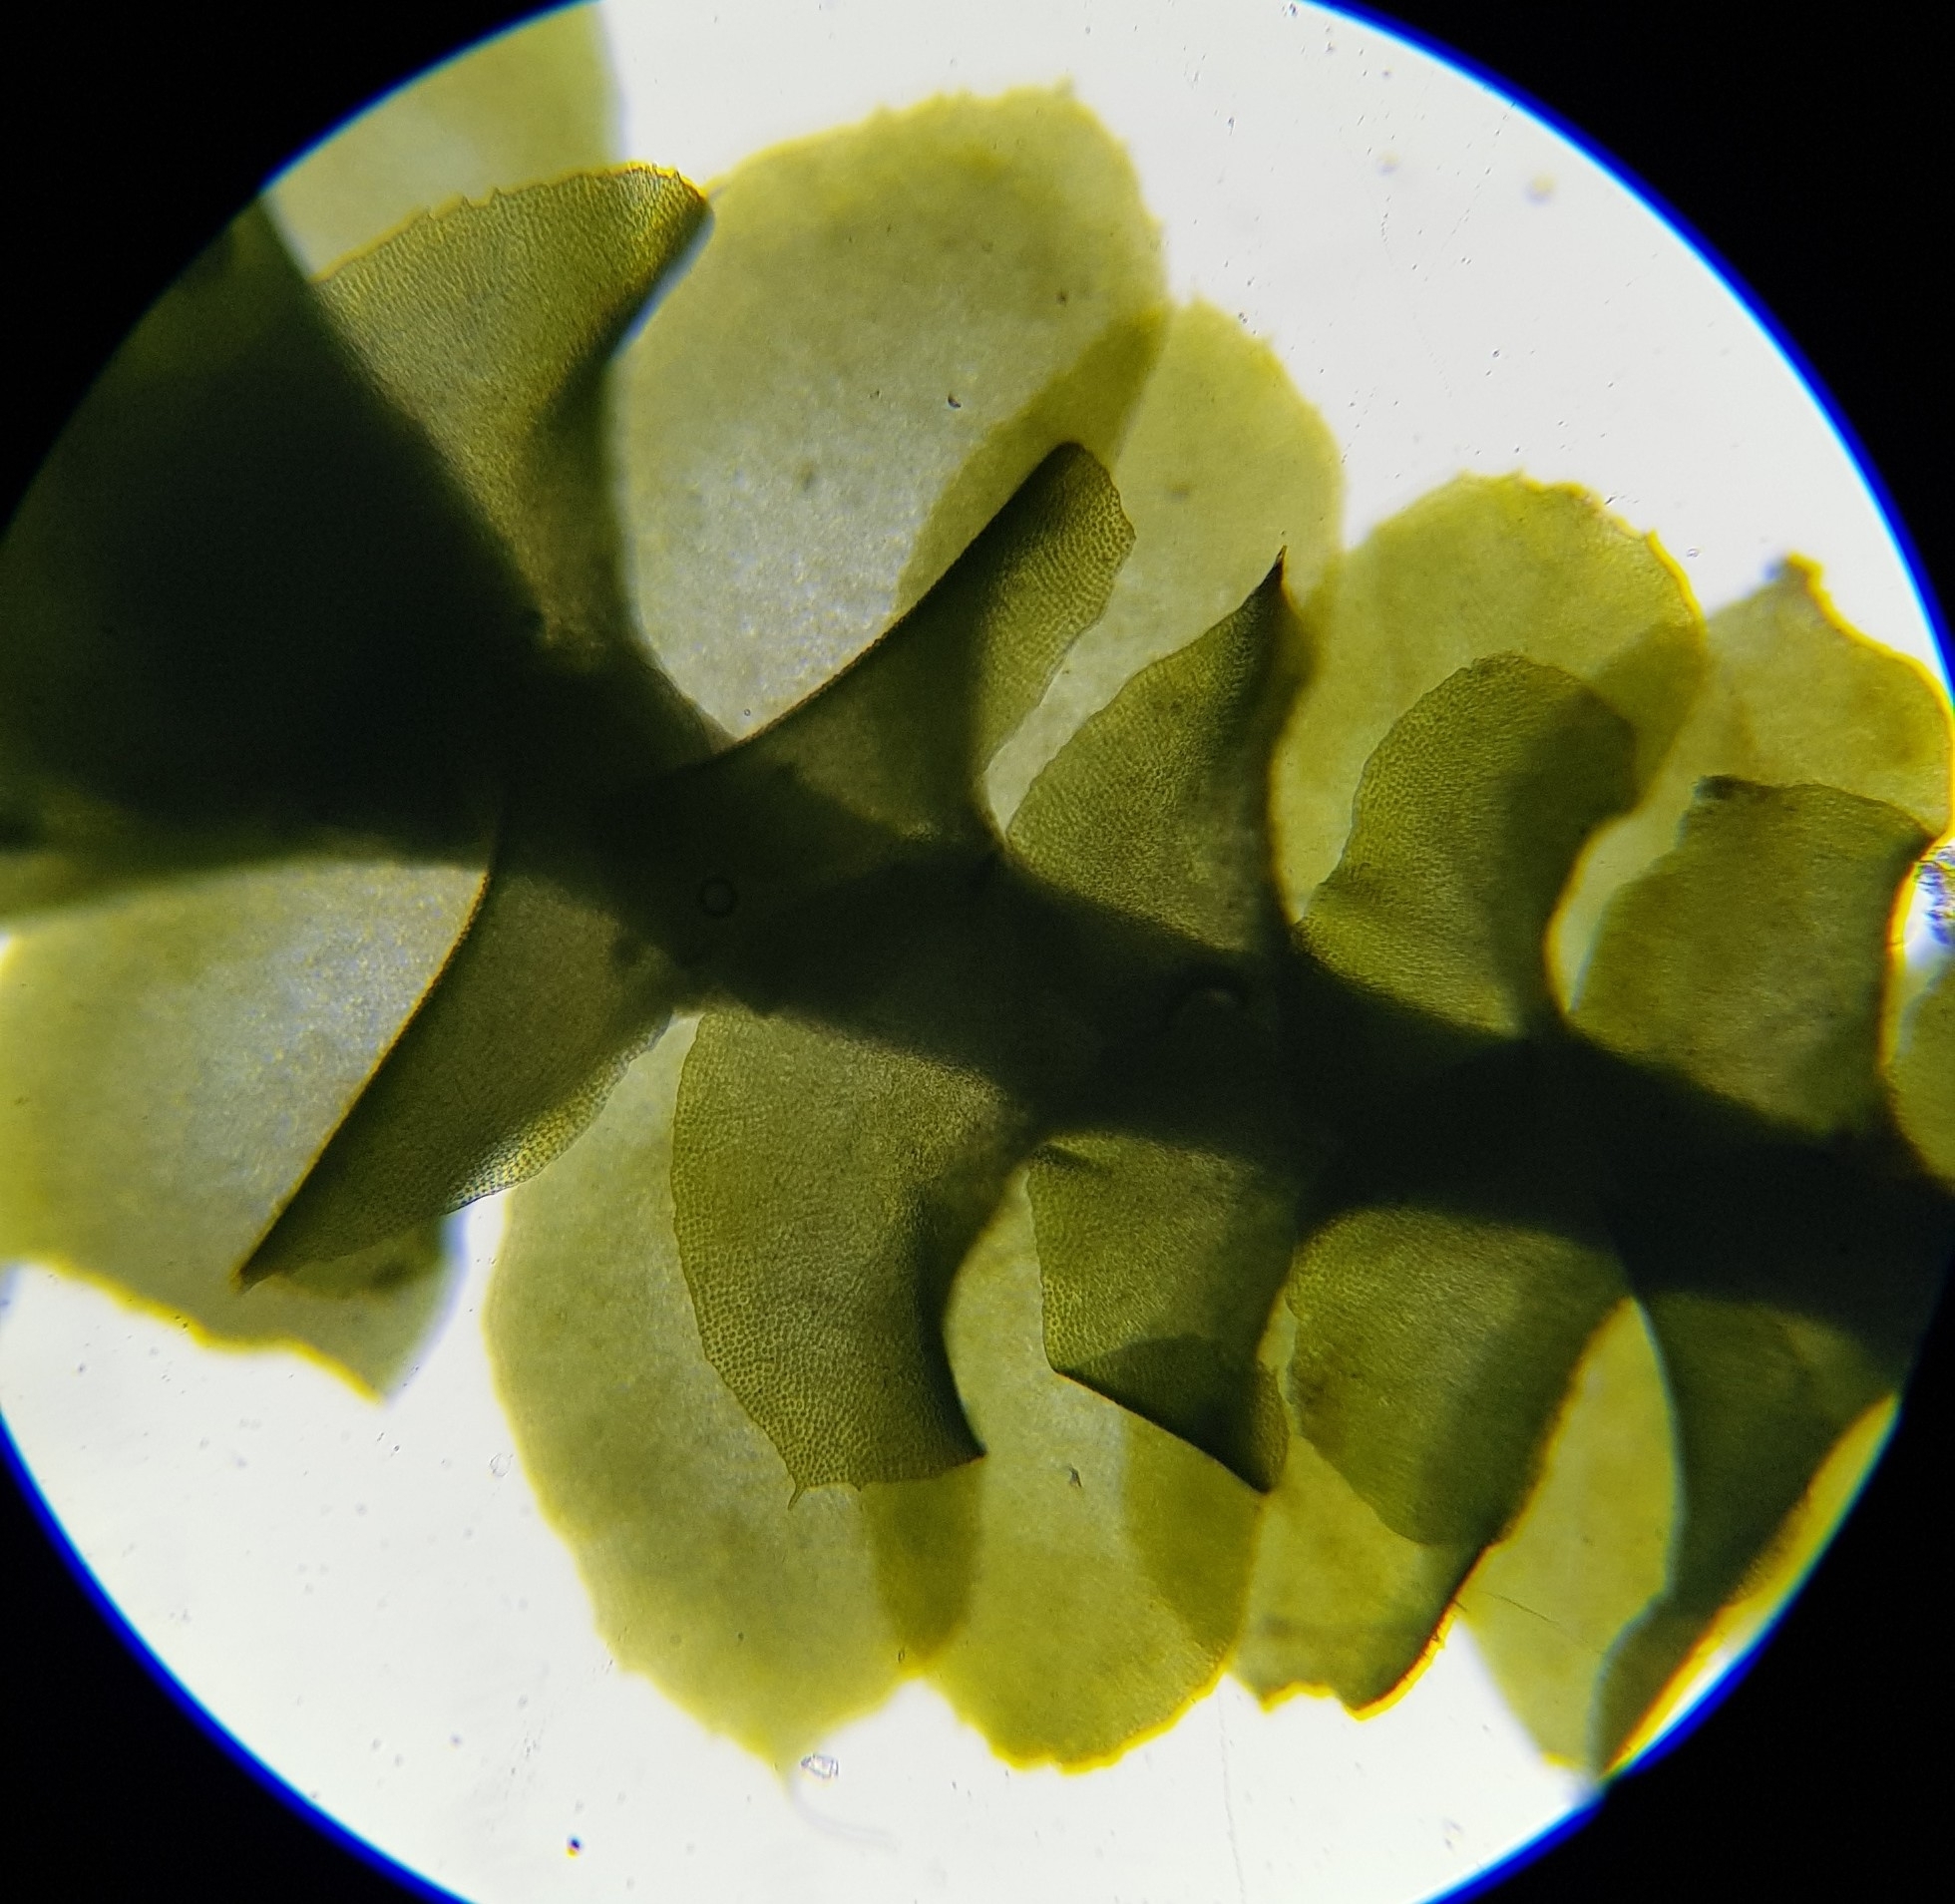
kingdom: Plantae
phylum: Marchantiophyta
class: Jungermanniopsida
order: Jungermanniales
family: Scapaniaceae
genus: Scapania
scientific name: Scapania aspera
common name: Rough earwort
